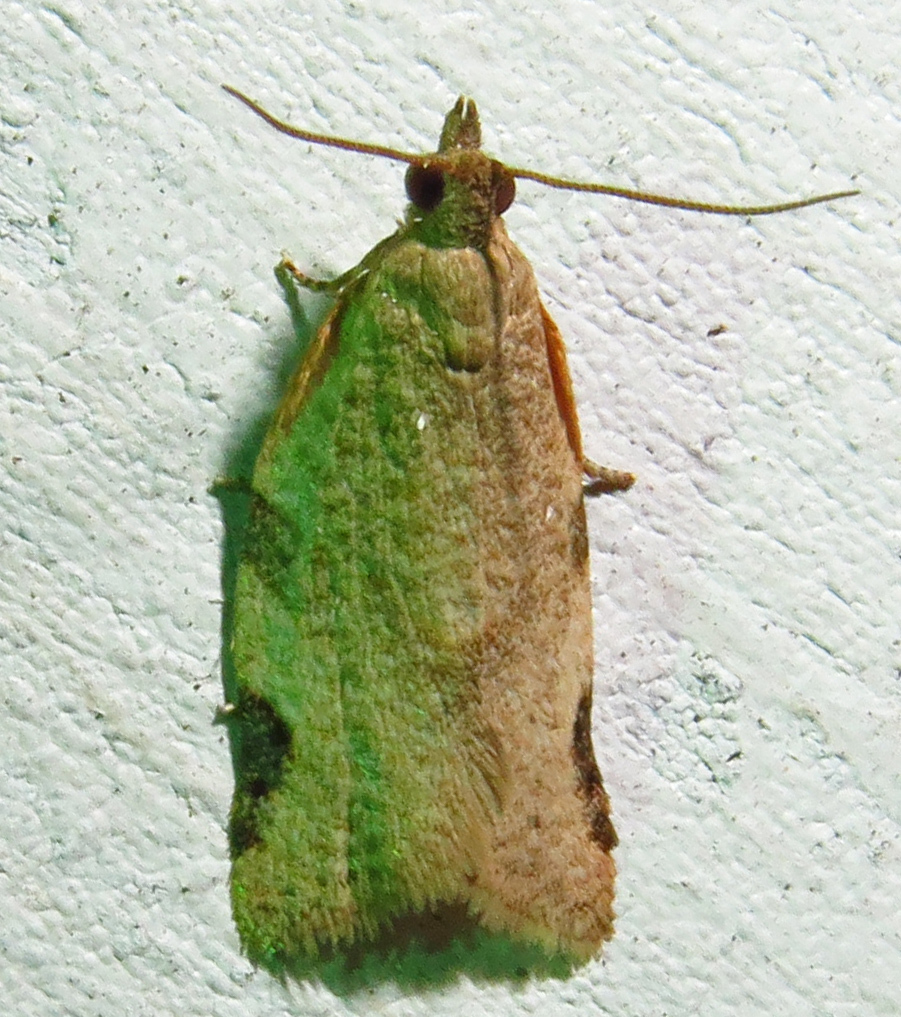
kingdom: Animalia
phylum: Arthropoda
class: Insecta
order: Lepidoptera
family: Tortricidae
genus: Clepsis
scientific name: Clepsis virescana
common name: Greenish apple moth
